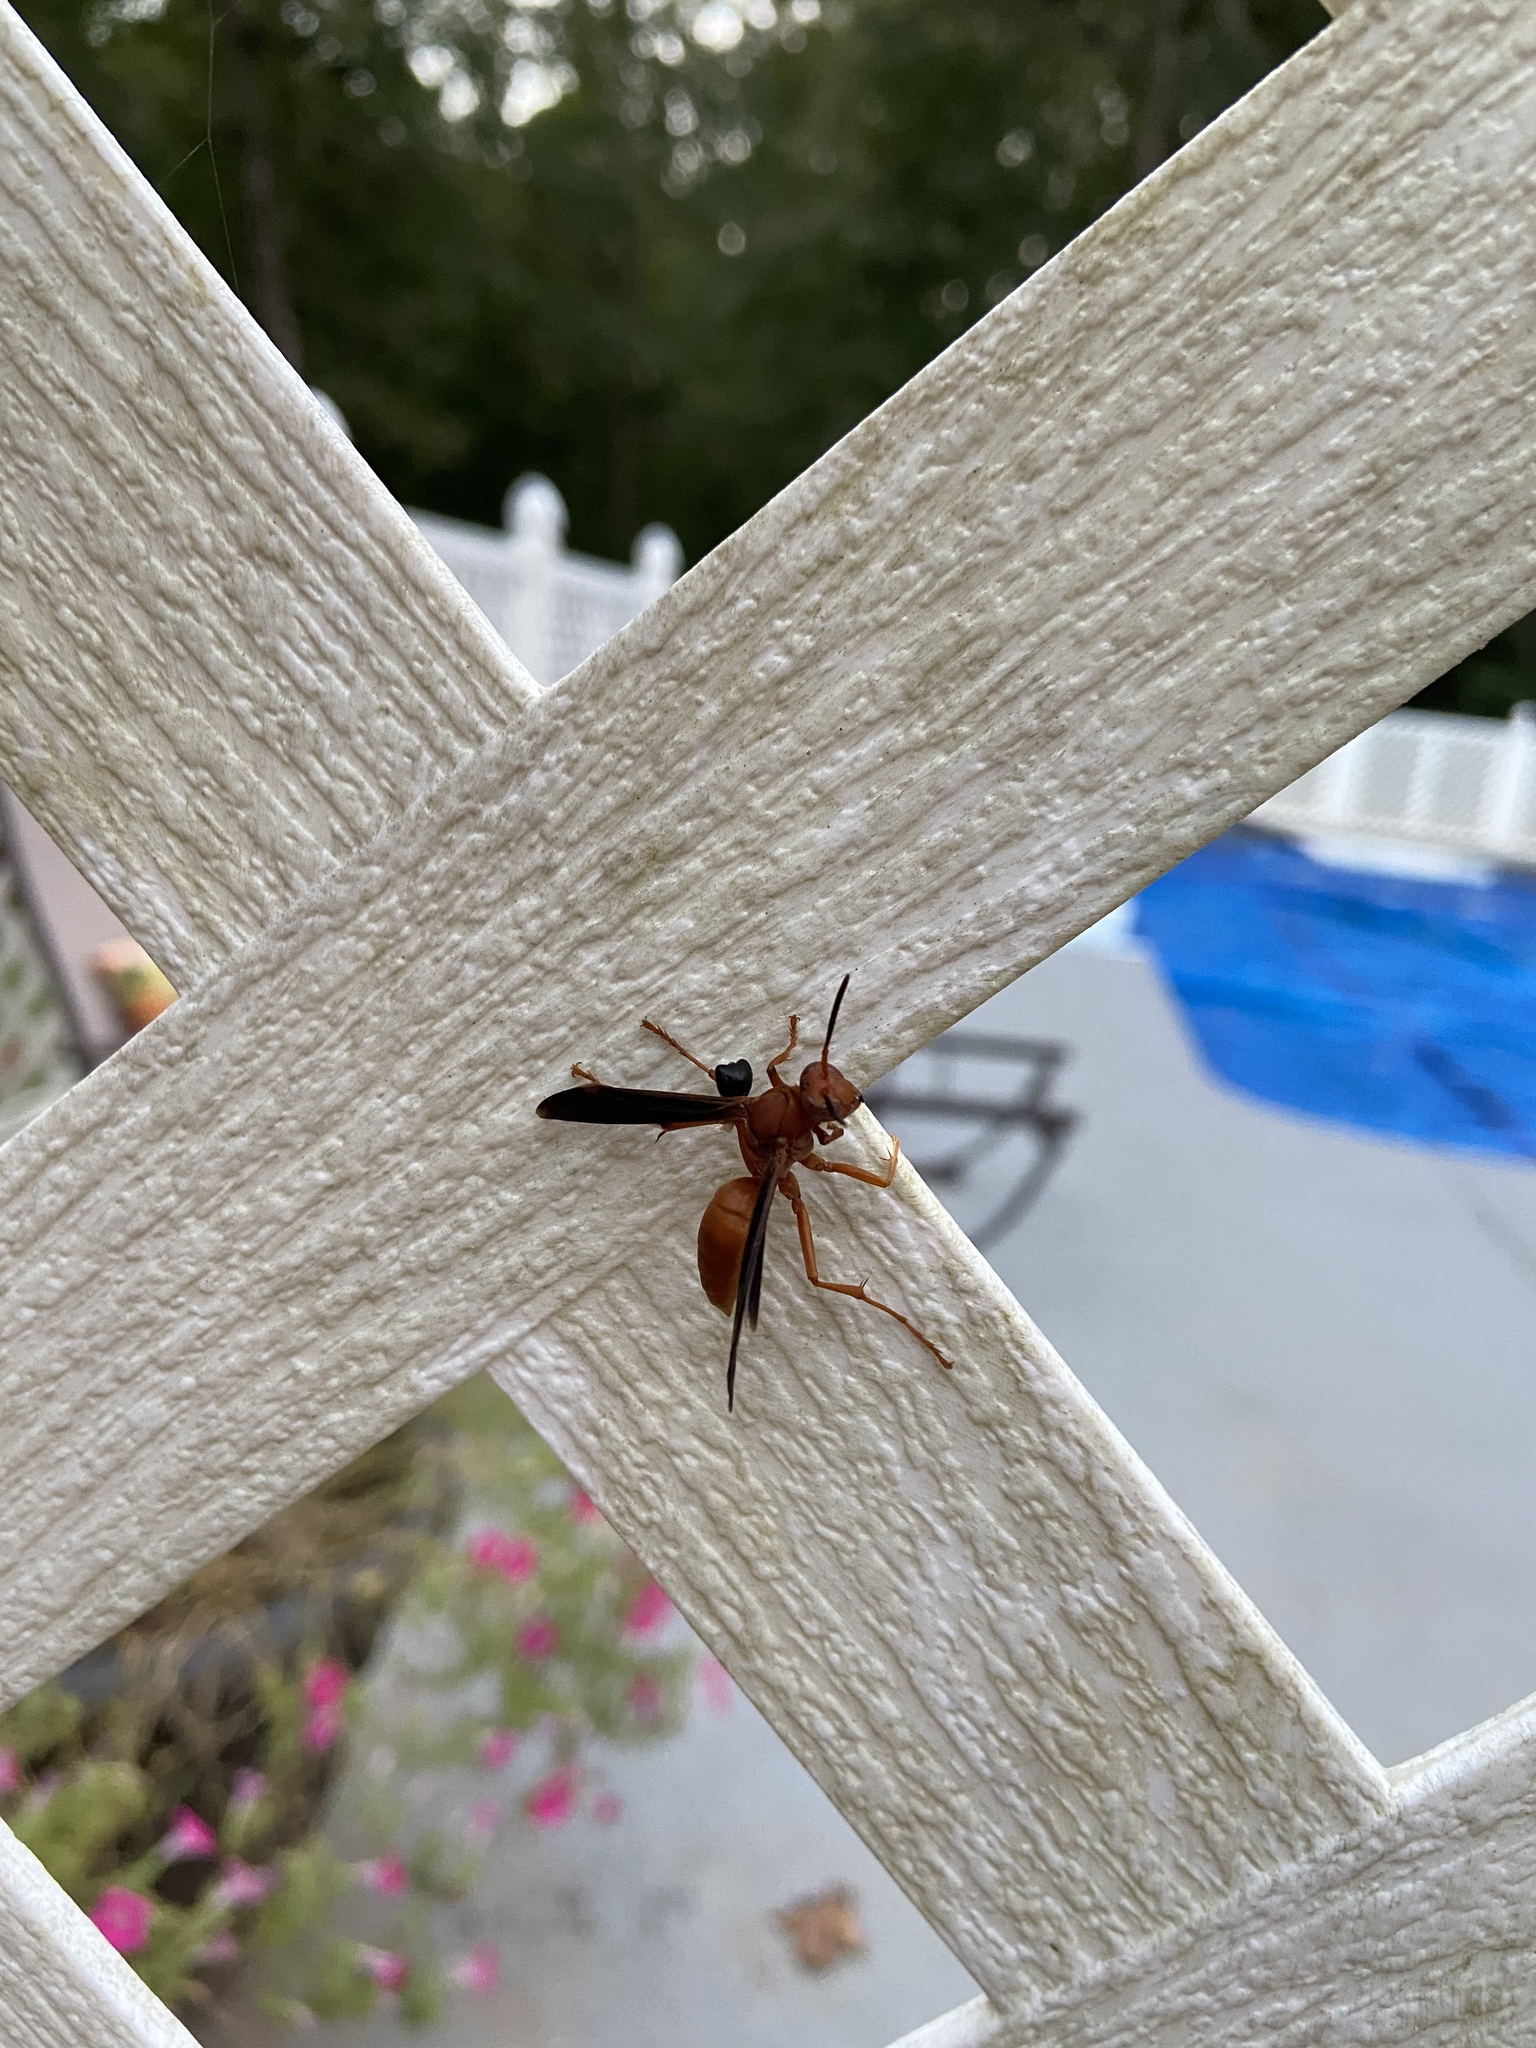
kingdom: Animalia
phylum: Arthropoda
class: Insecta
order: Hymenoptera
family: Eumenidae
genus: Polistes
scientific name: Polistes carolina
